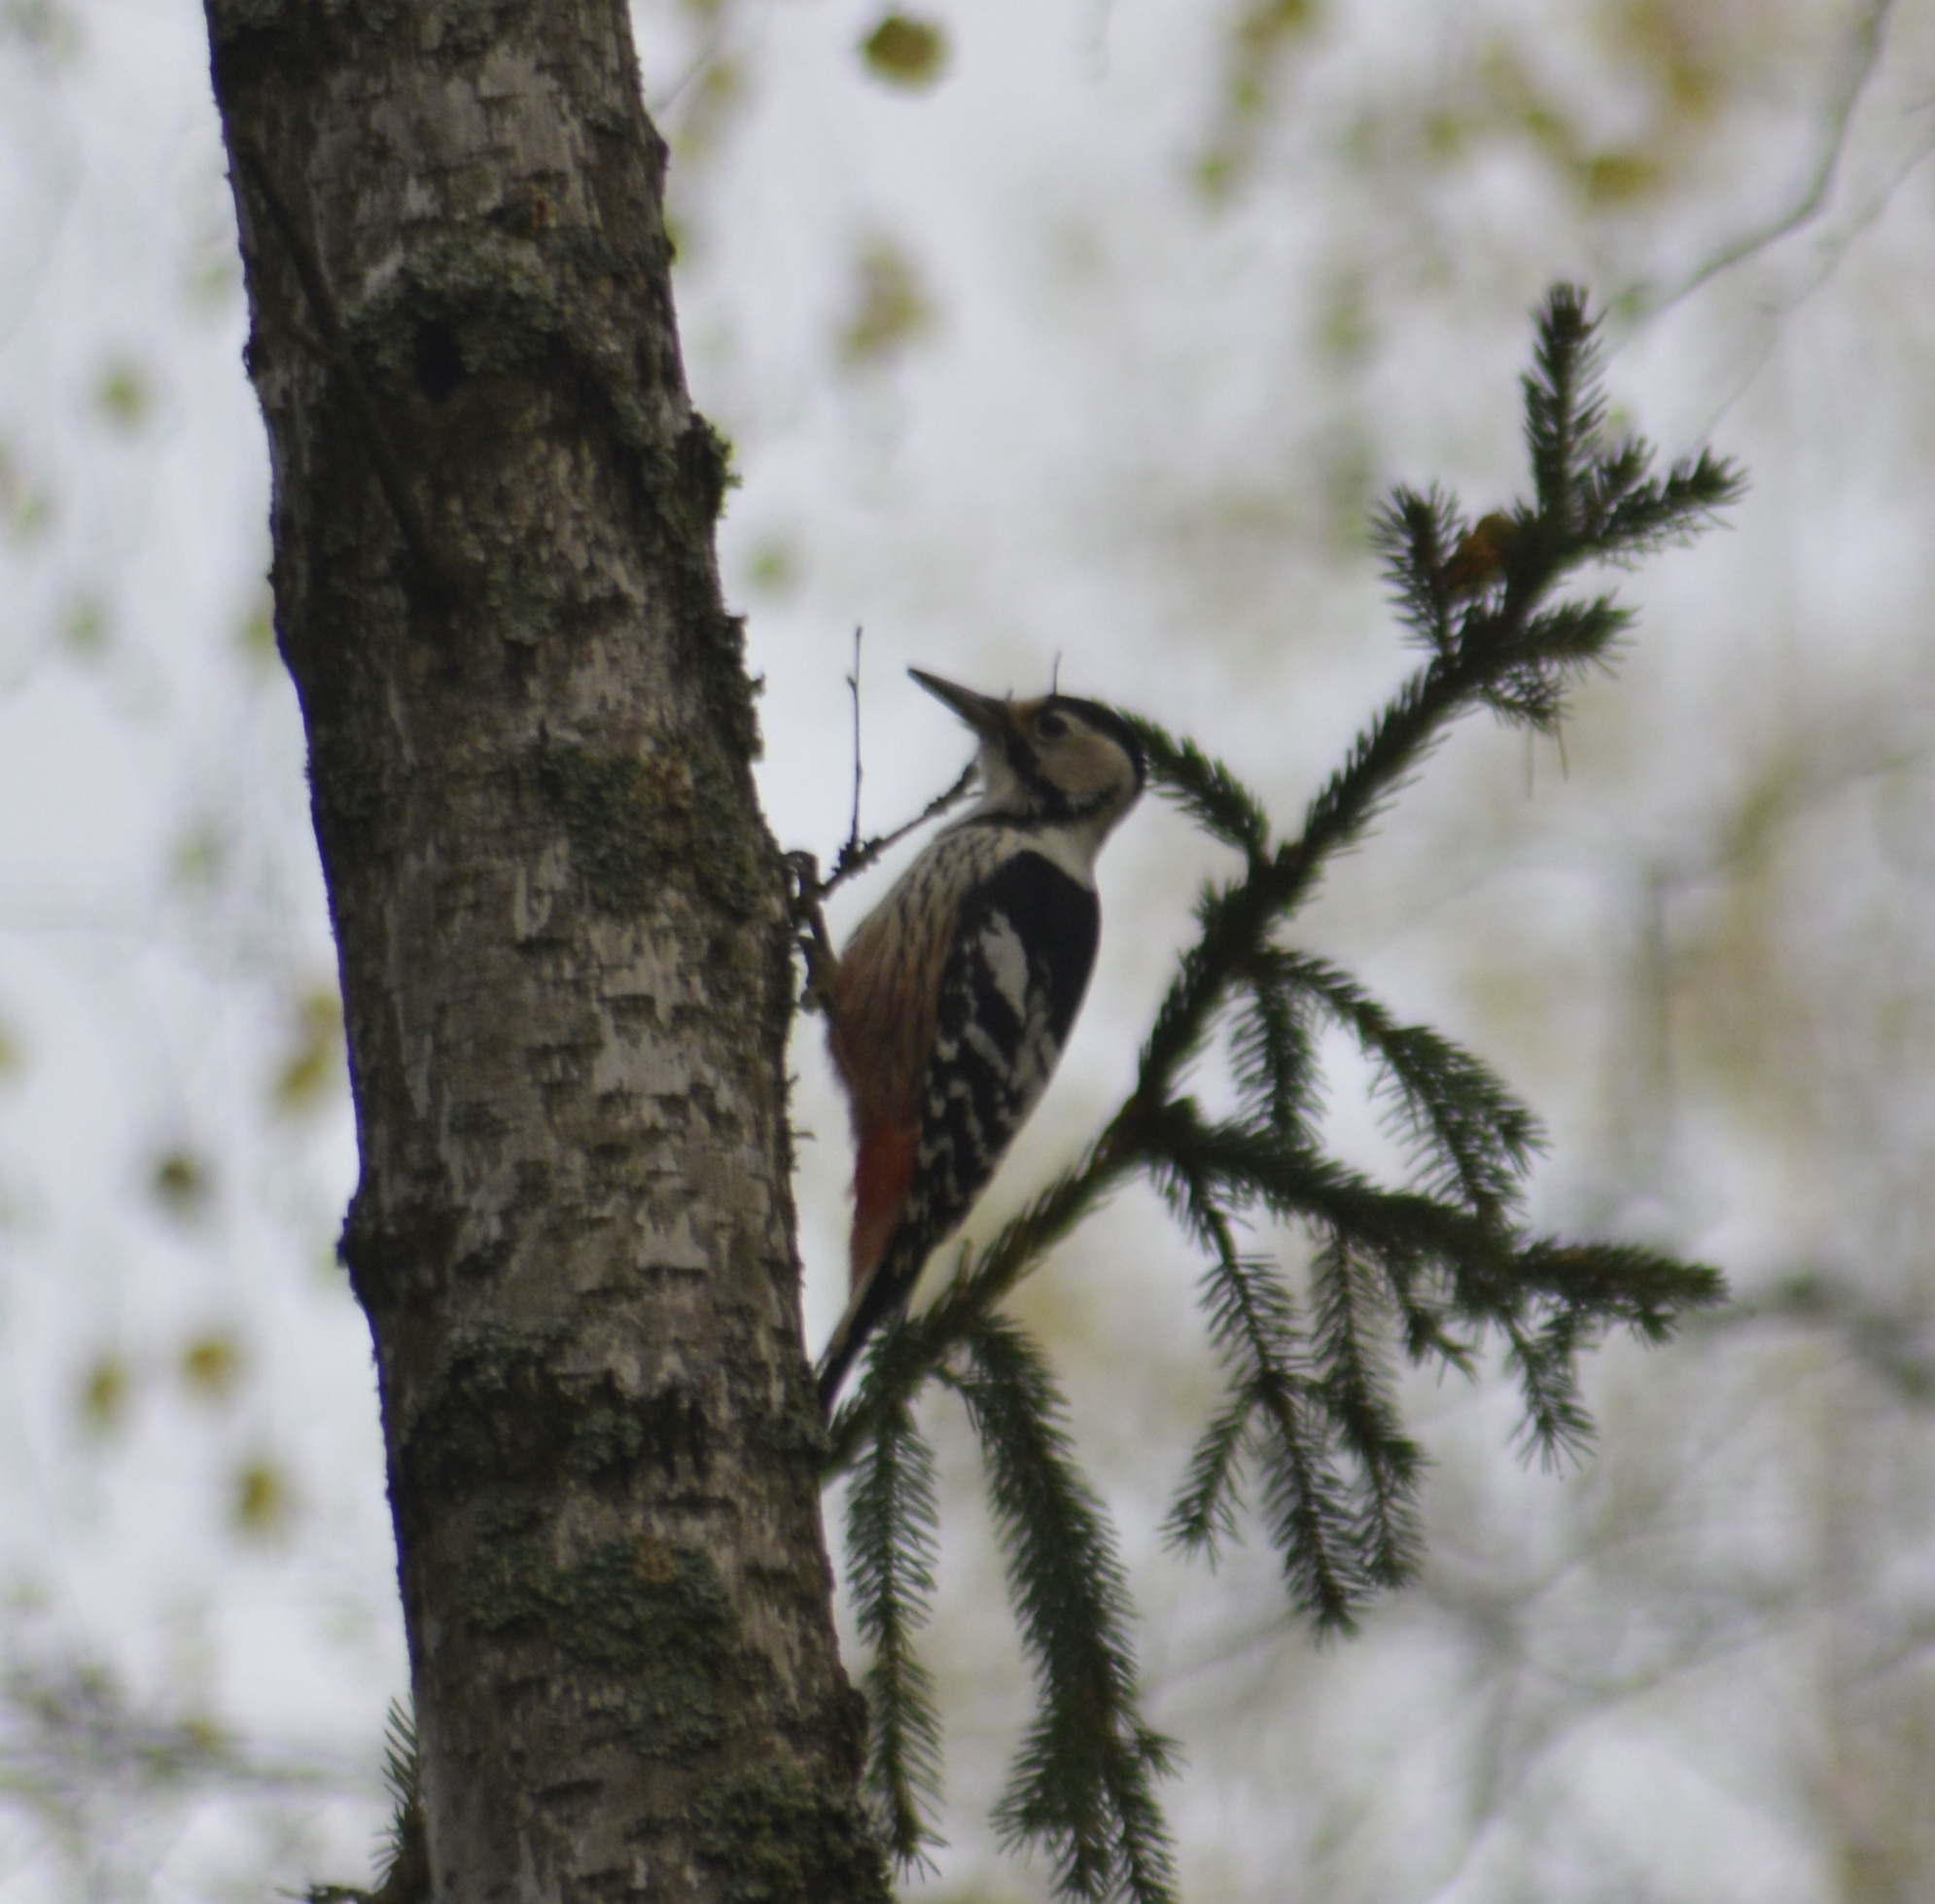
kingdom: Animalia
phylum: Chordata
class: Aves
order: Piciformes
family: Picidae
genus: Dendrocopos
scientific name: Dendrocopos leucotos
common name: White-backed woodpecker
